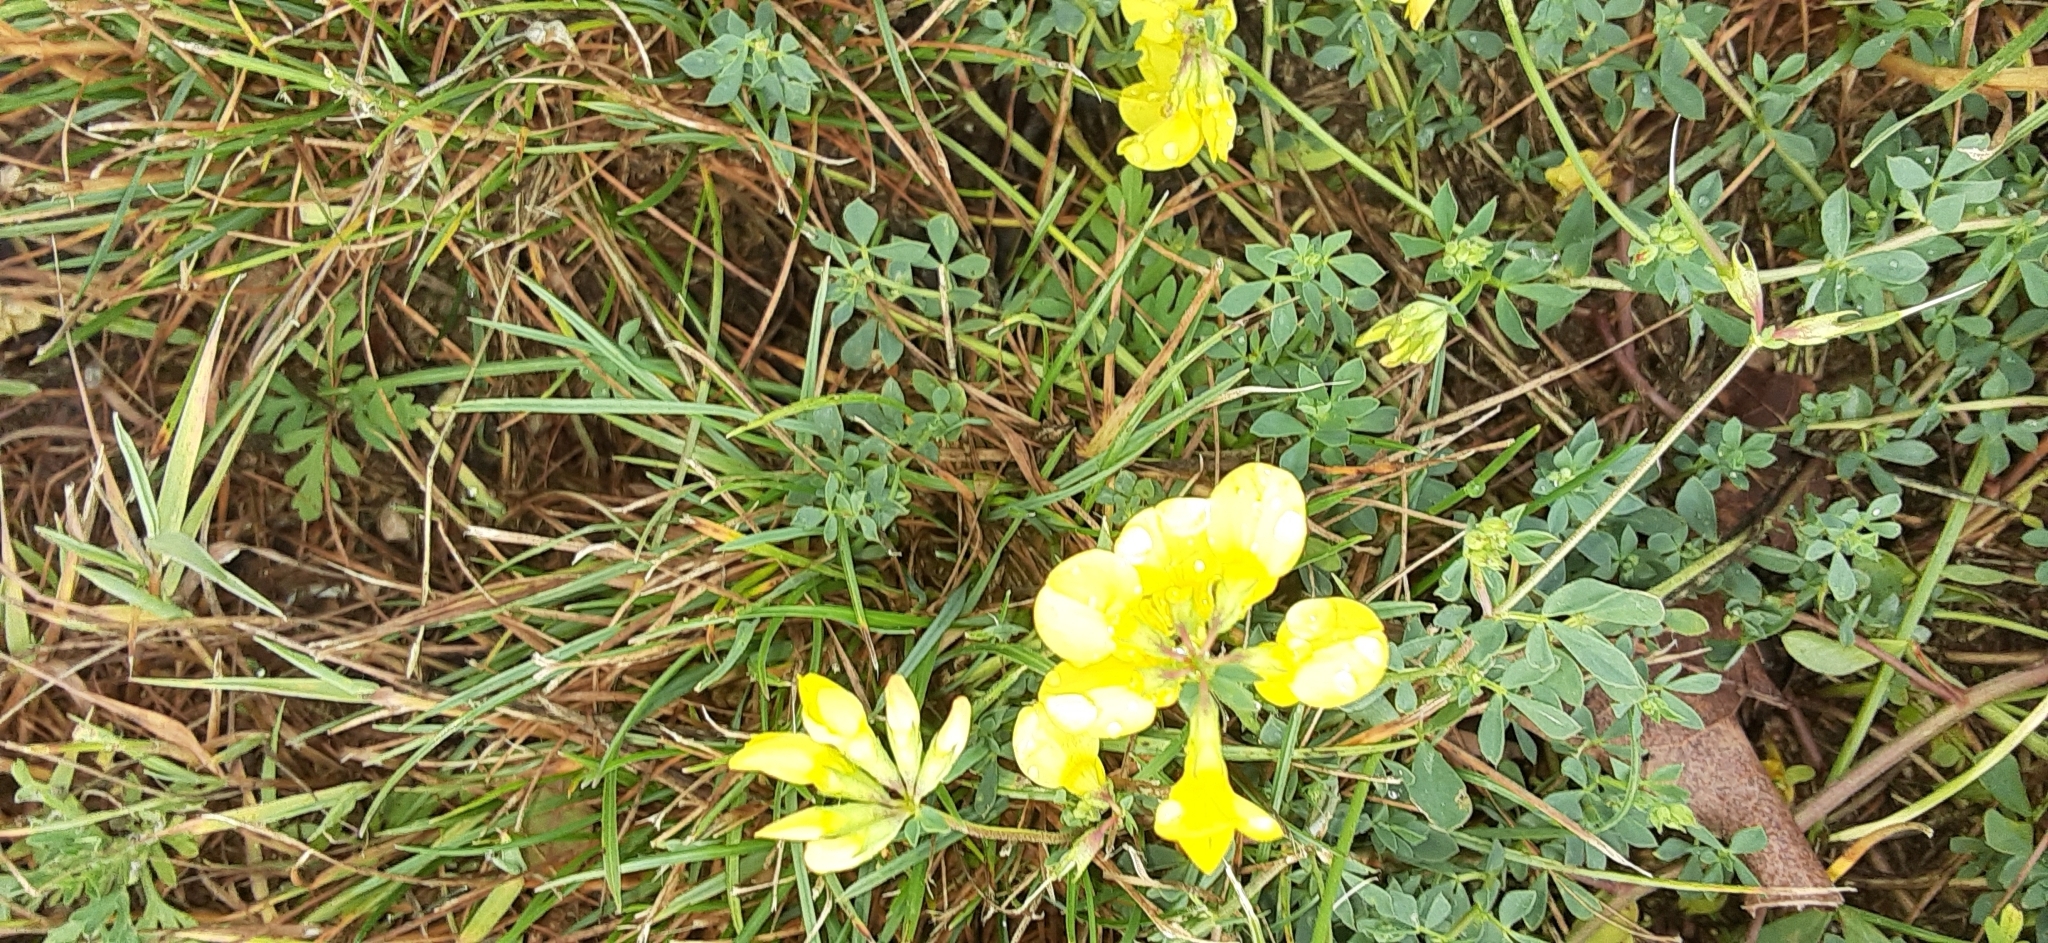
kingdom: Plantae
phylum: Tracheophyta
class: Magnoliopsida
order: Fabales
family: Fabaceae
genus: Lotus
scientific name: Lotus corniculatus
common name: Common bird's-foot-trefoil
